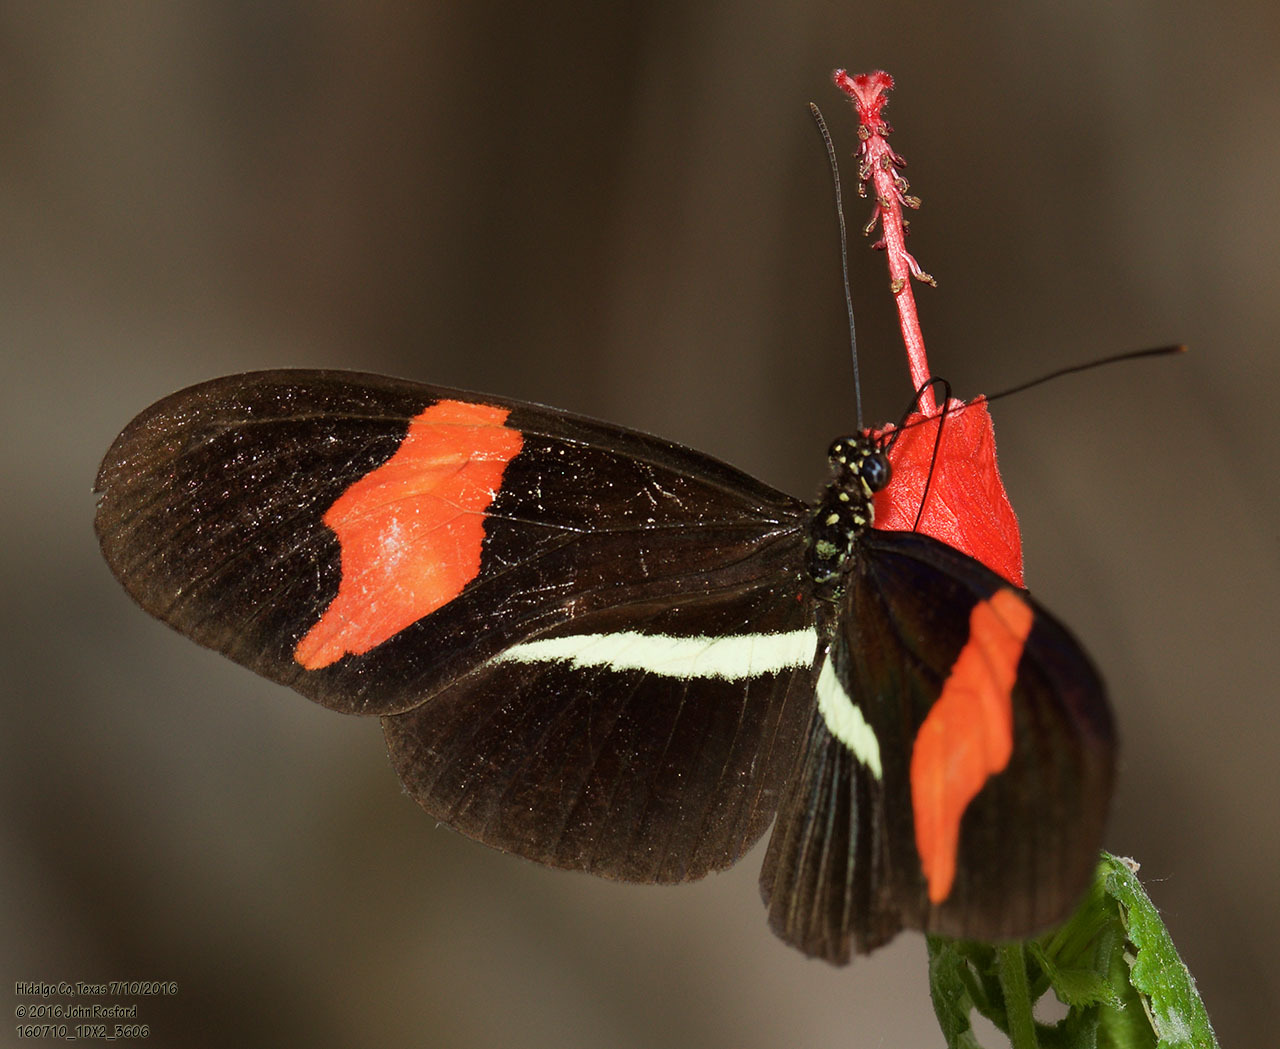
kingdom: Animalia
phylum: Arthropoda
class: Insecta
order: Lepidoptera
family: Nymphalidae
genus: Tirumala
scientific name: Tirumala petiverana
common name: Blue monarch
